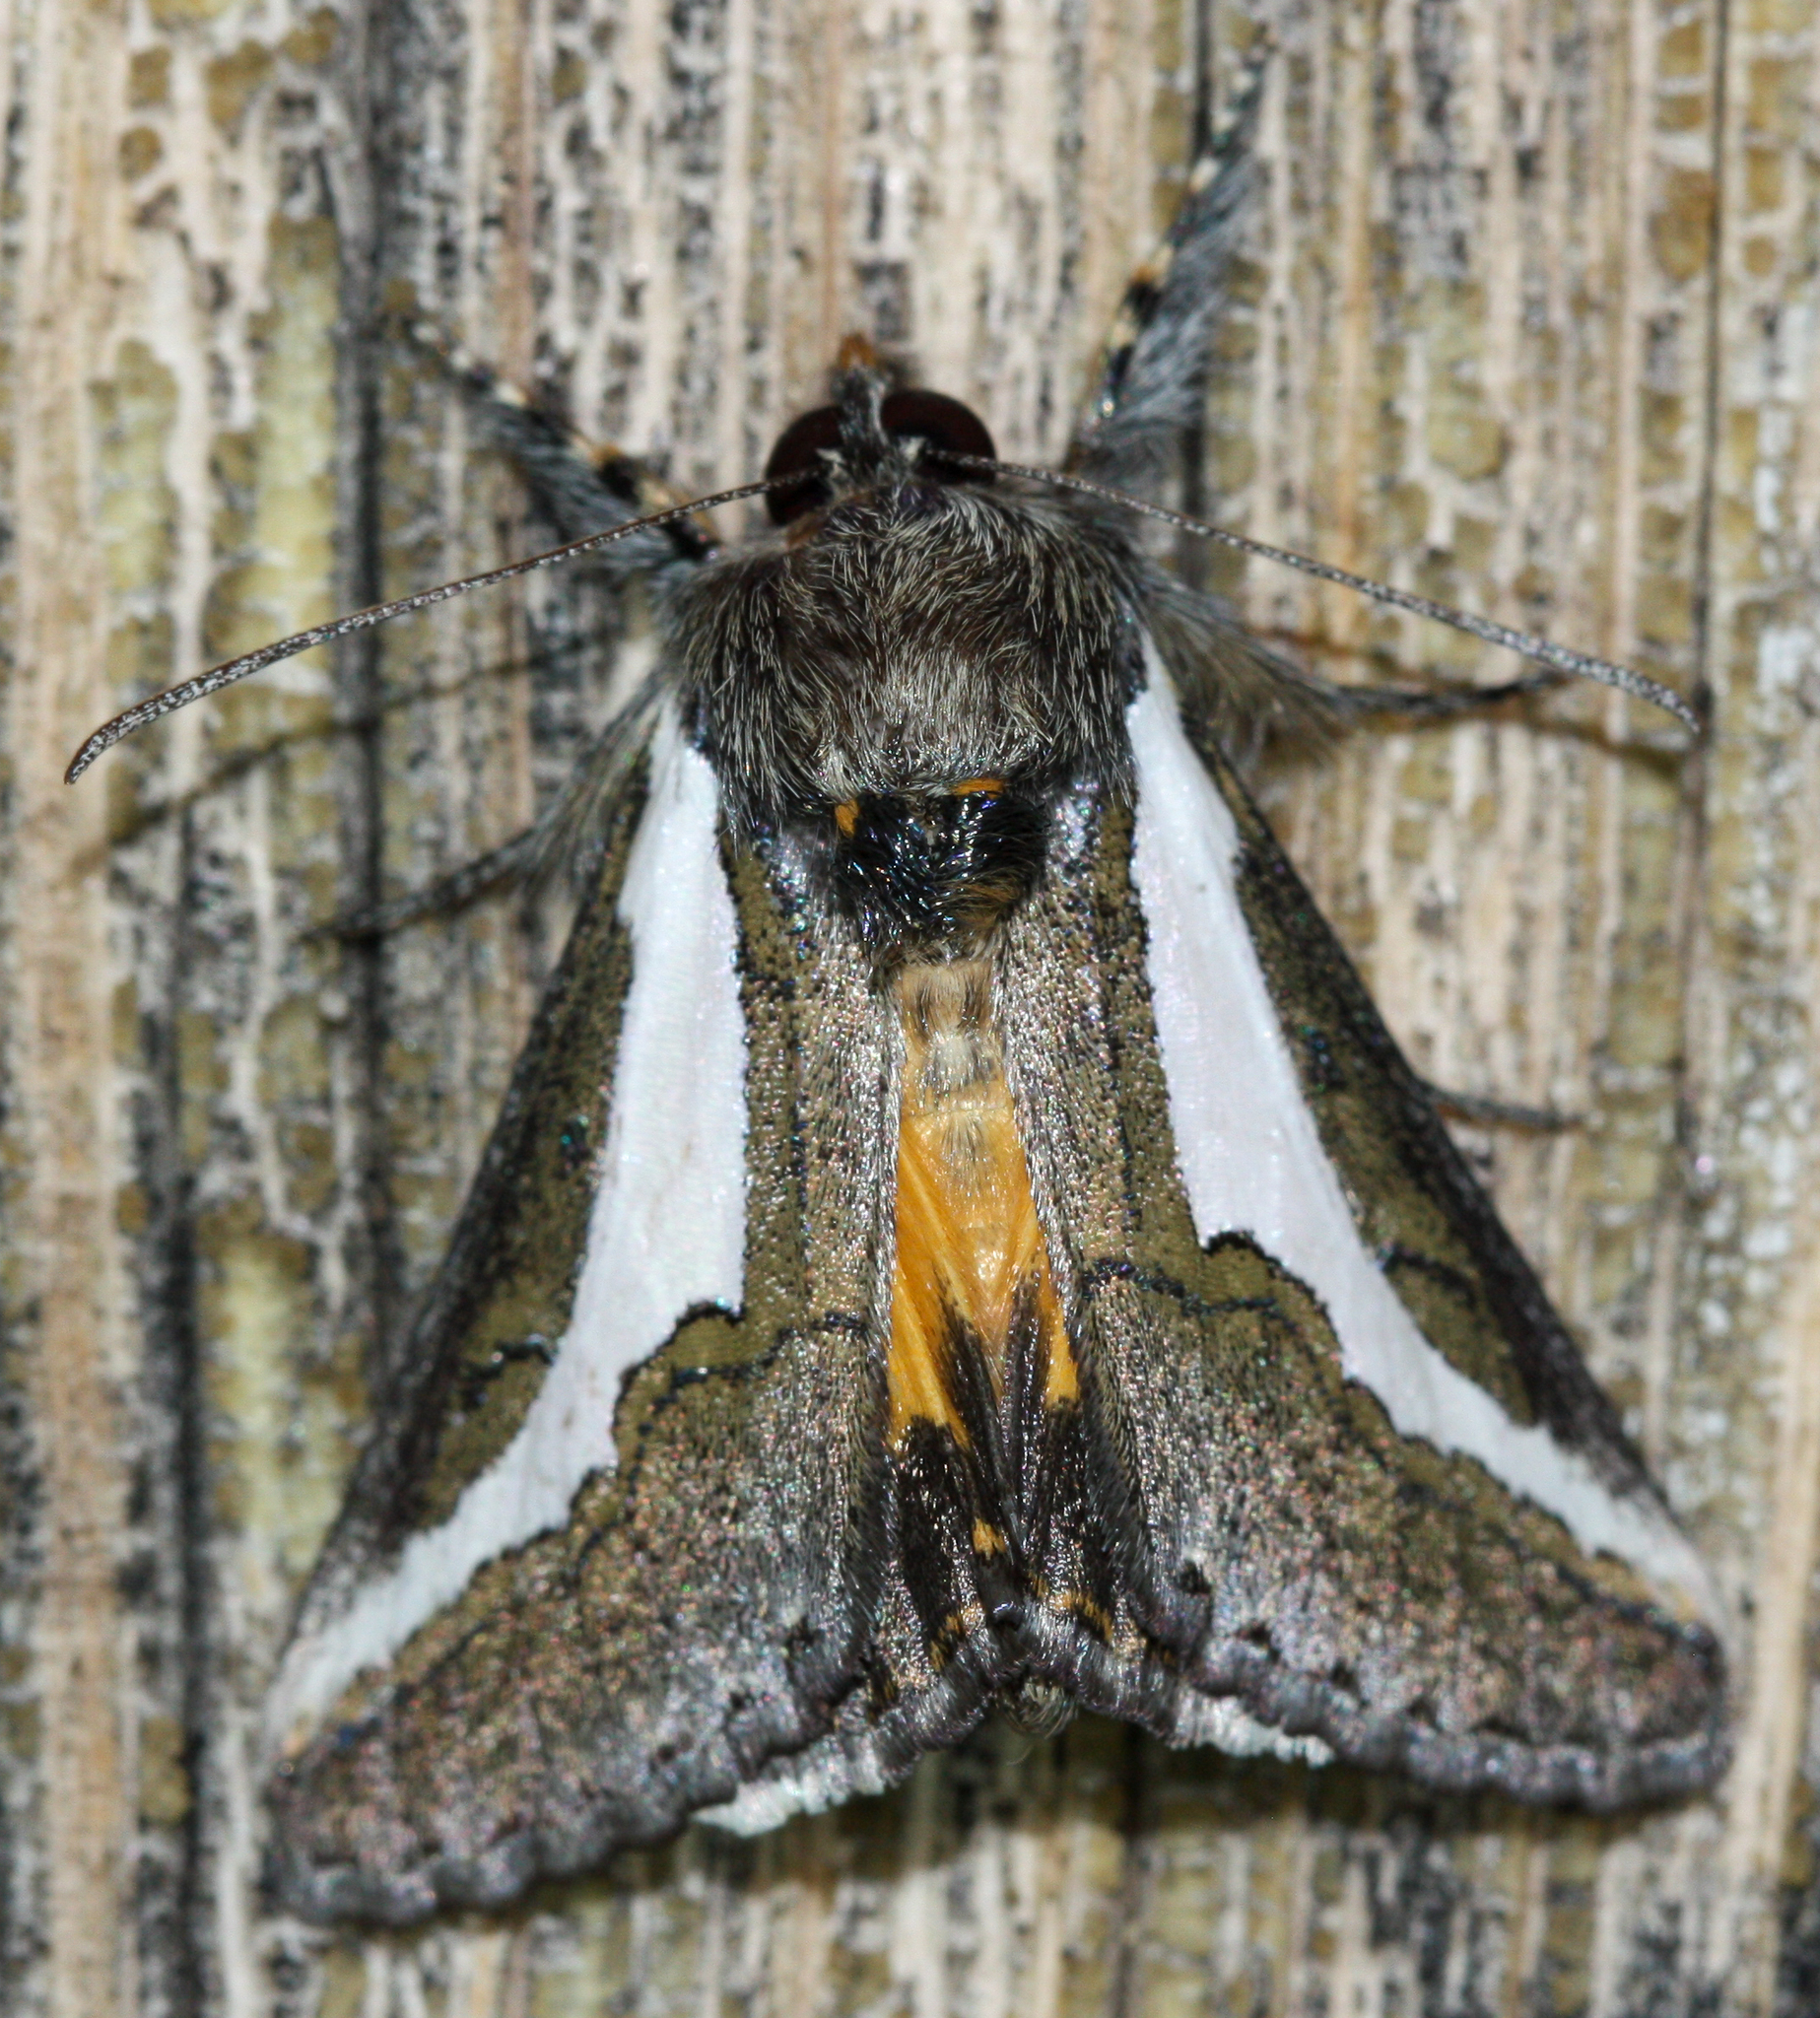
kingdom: Animalia
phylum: Arthropoda
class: Insecta
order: Lepidoptera
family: Noctuidae
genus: Euscirrhopterus
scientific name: Euscirrhopterus cosyra
